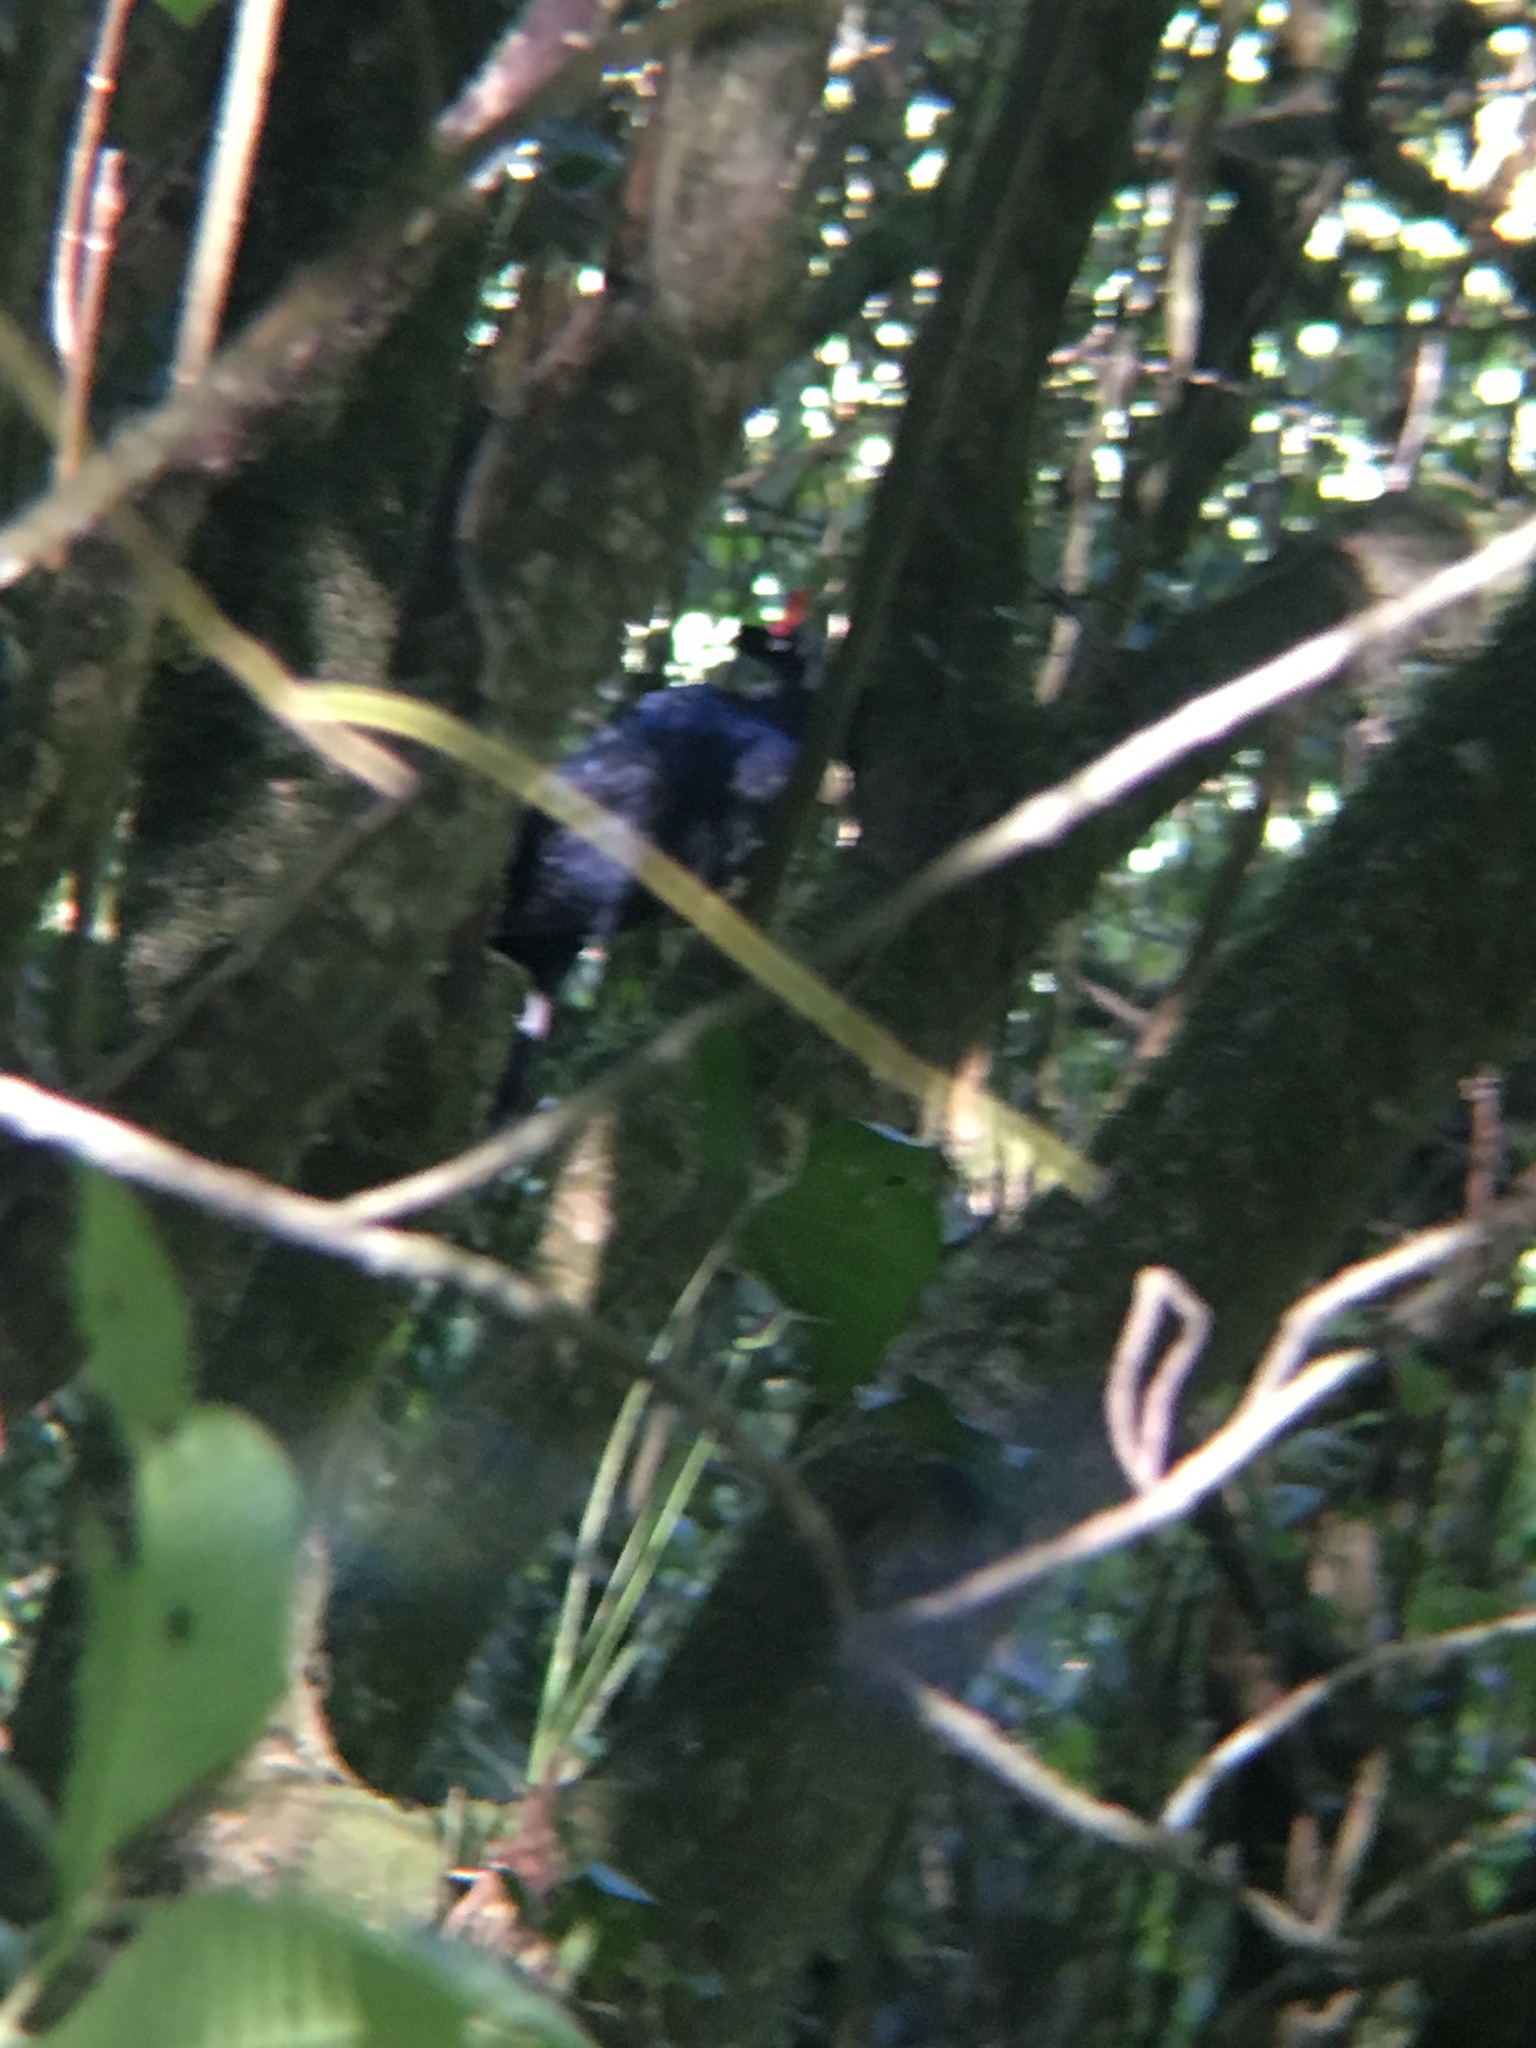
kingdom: Animalia
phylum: Chordata
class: Aves
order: Galliformes
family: Cracidae
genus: Oreophasis
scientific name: Oreophasis derbianus
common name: Horned guan
